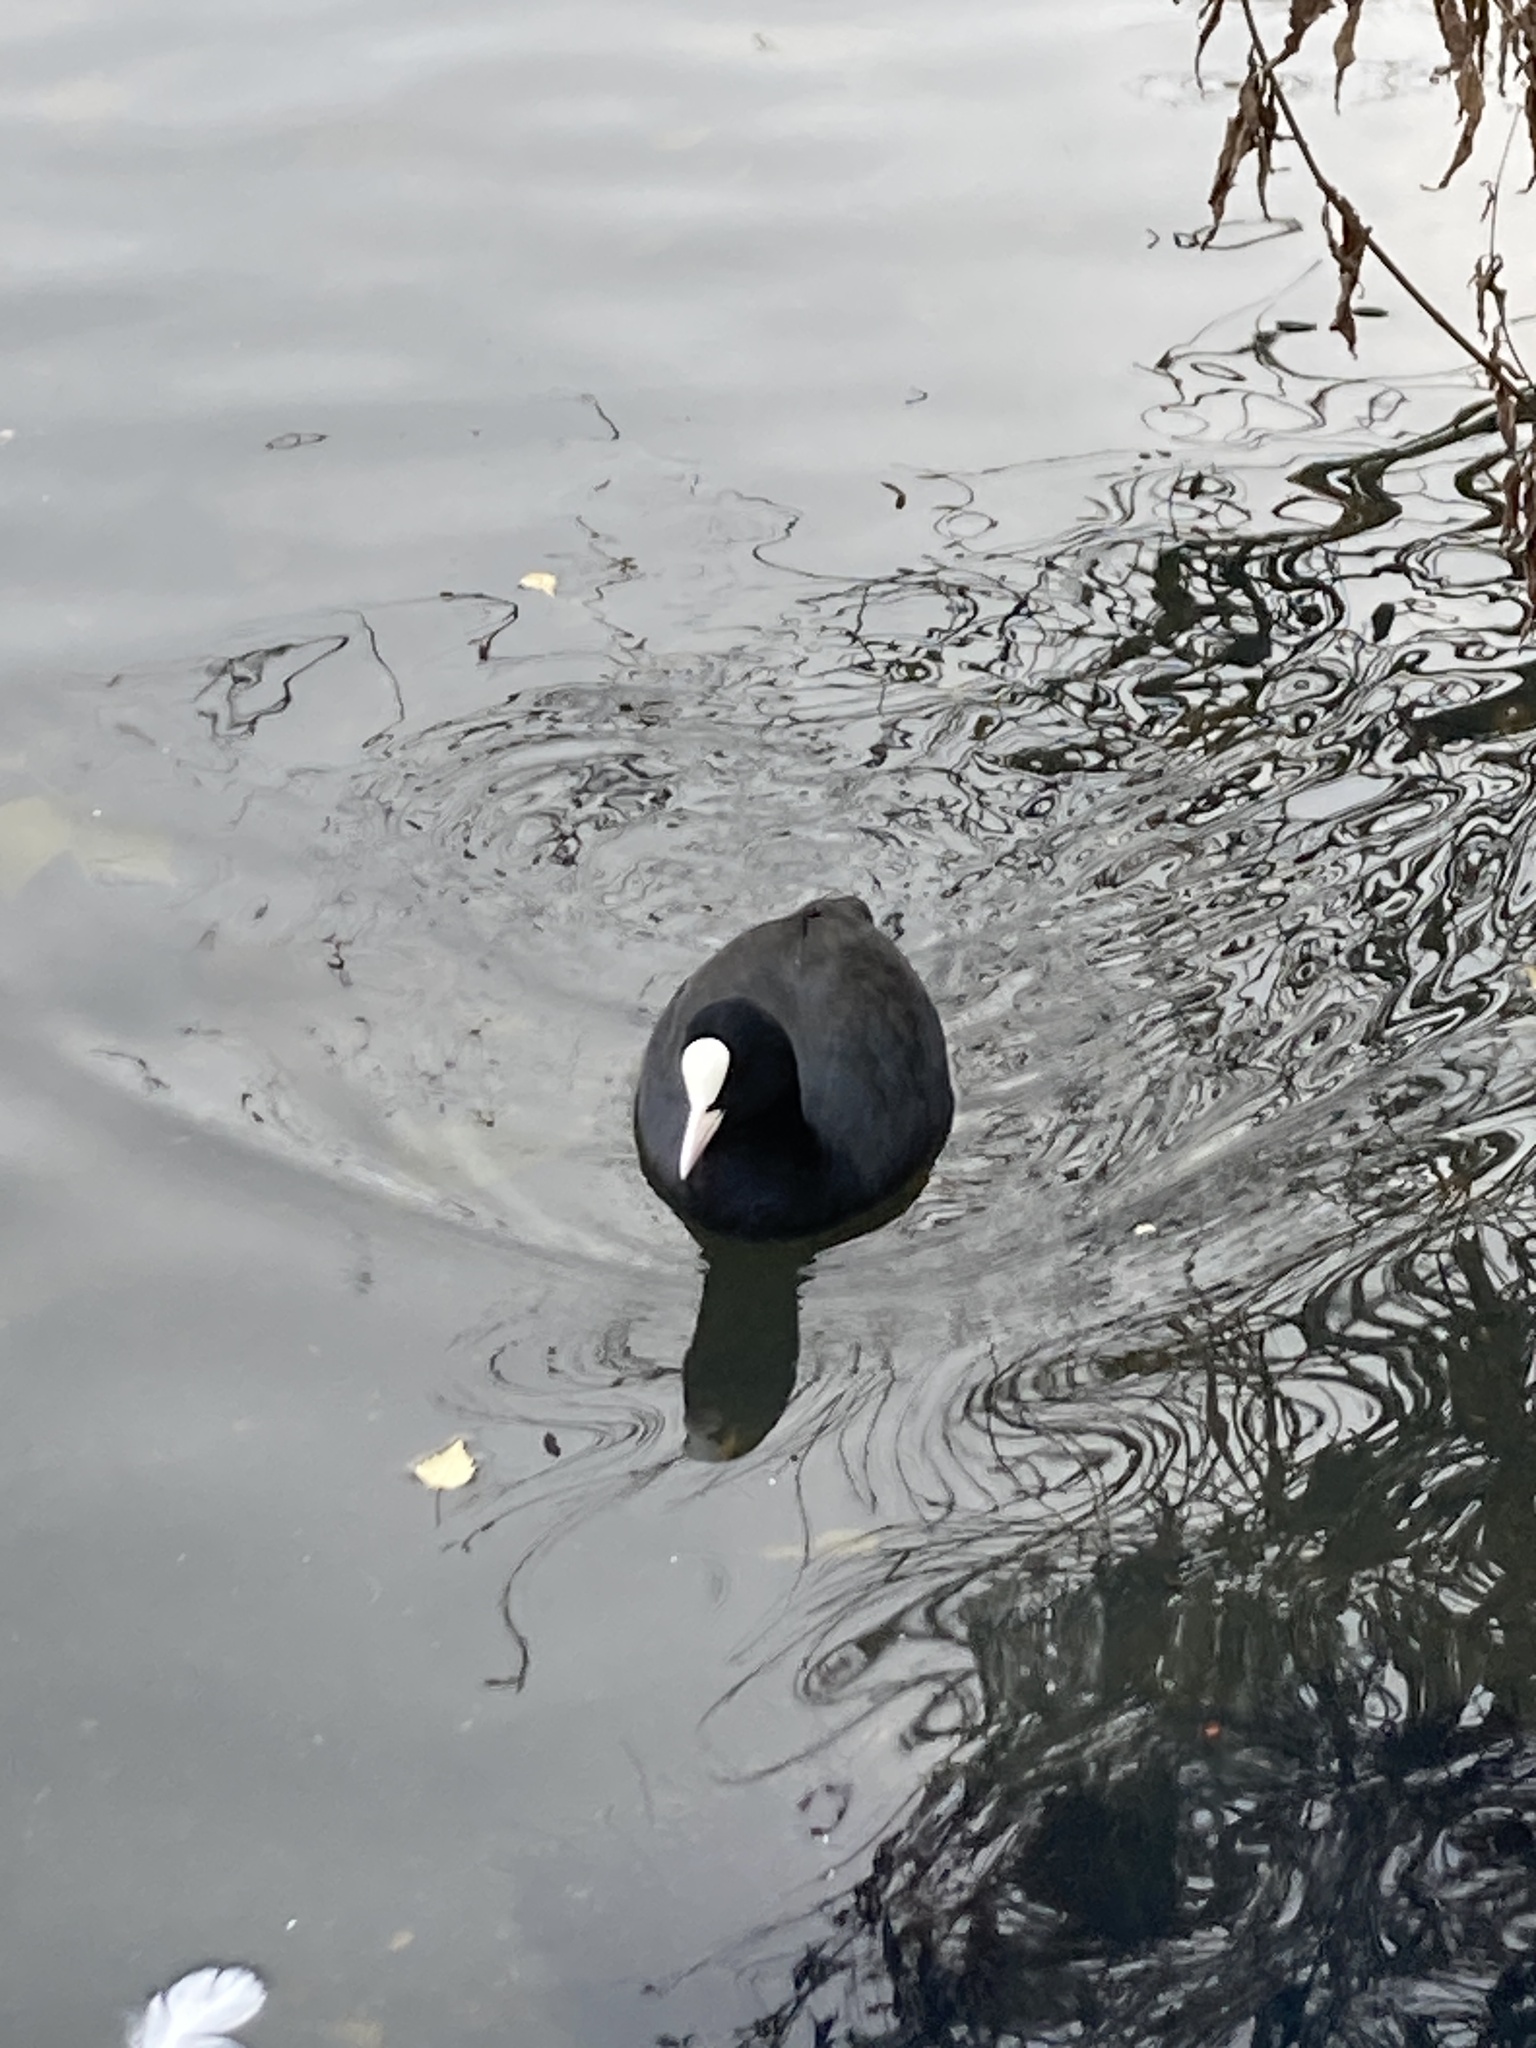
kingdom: Animalia
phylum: Chordata
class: Aves
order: Gruiformes
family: Rallidae
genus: Fulica
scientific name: Fulica atra
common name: Eurasian coot
